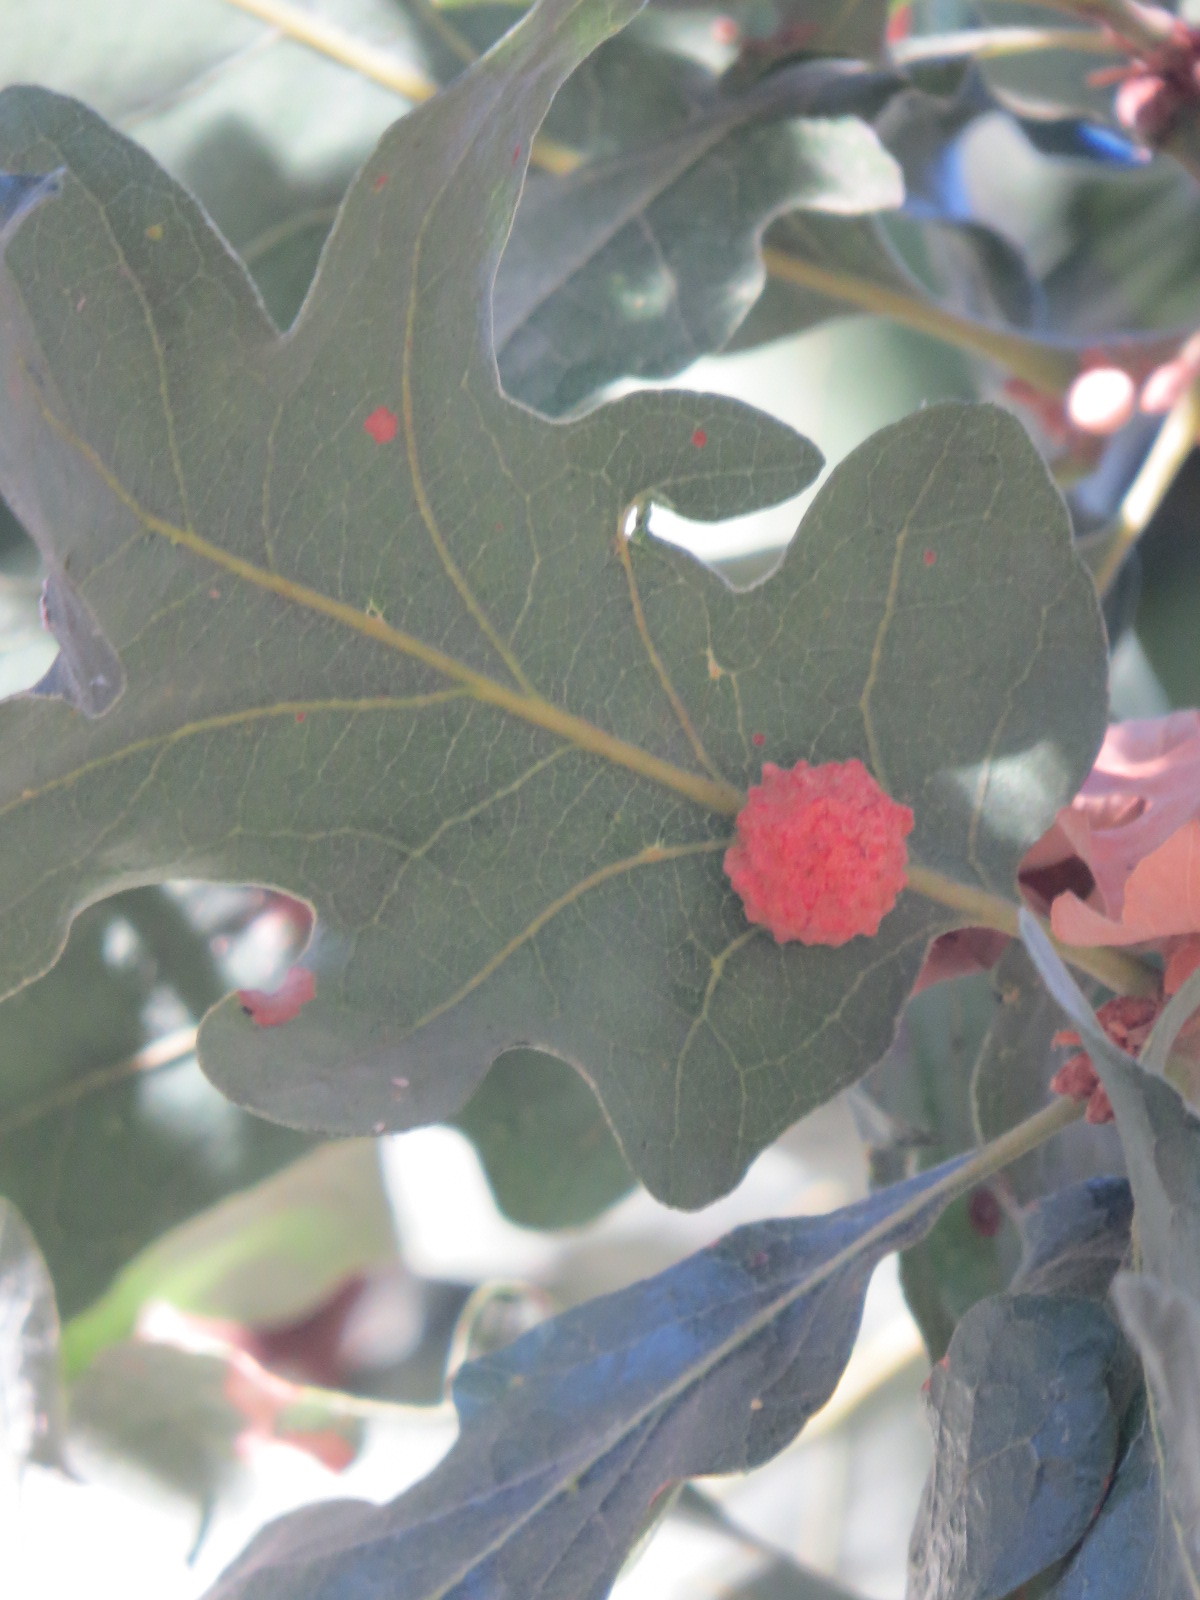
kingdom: Animalia
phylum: Arthropoda
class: Insecta
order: Hymenoptera
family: Cynipidae
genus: Cynips
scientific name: Cynips conspicua
